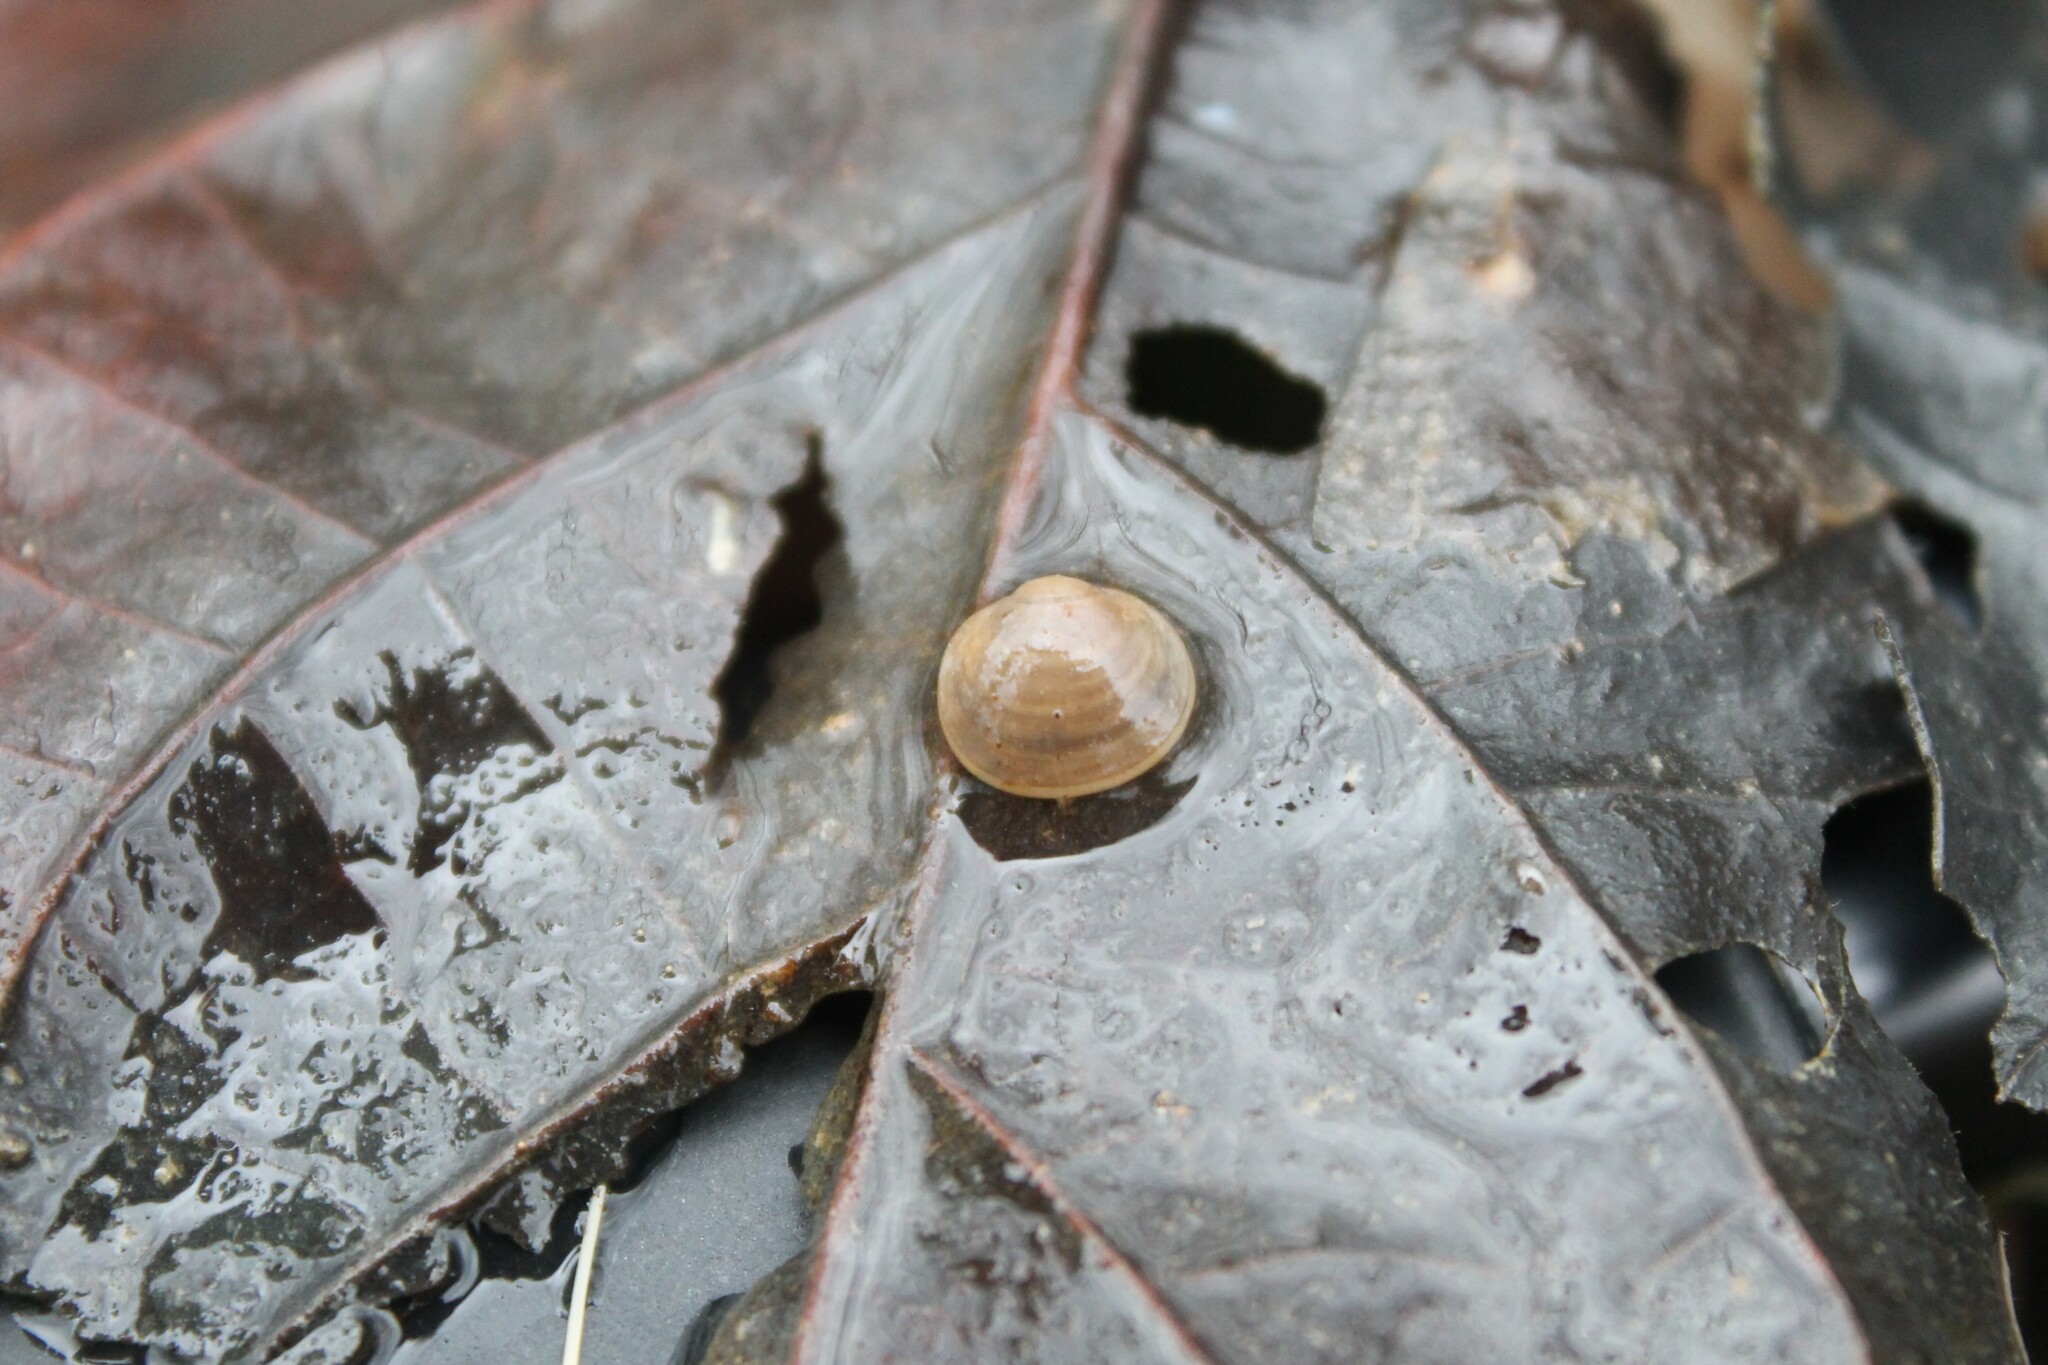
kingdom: Animalia
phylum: Mollusca
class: Bivalvia
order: Sphaeriida
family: Sphaeriidae
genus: Sphaerium
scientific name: Sphaerium occidentale
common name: Herrington fingernailclam
